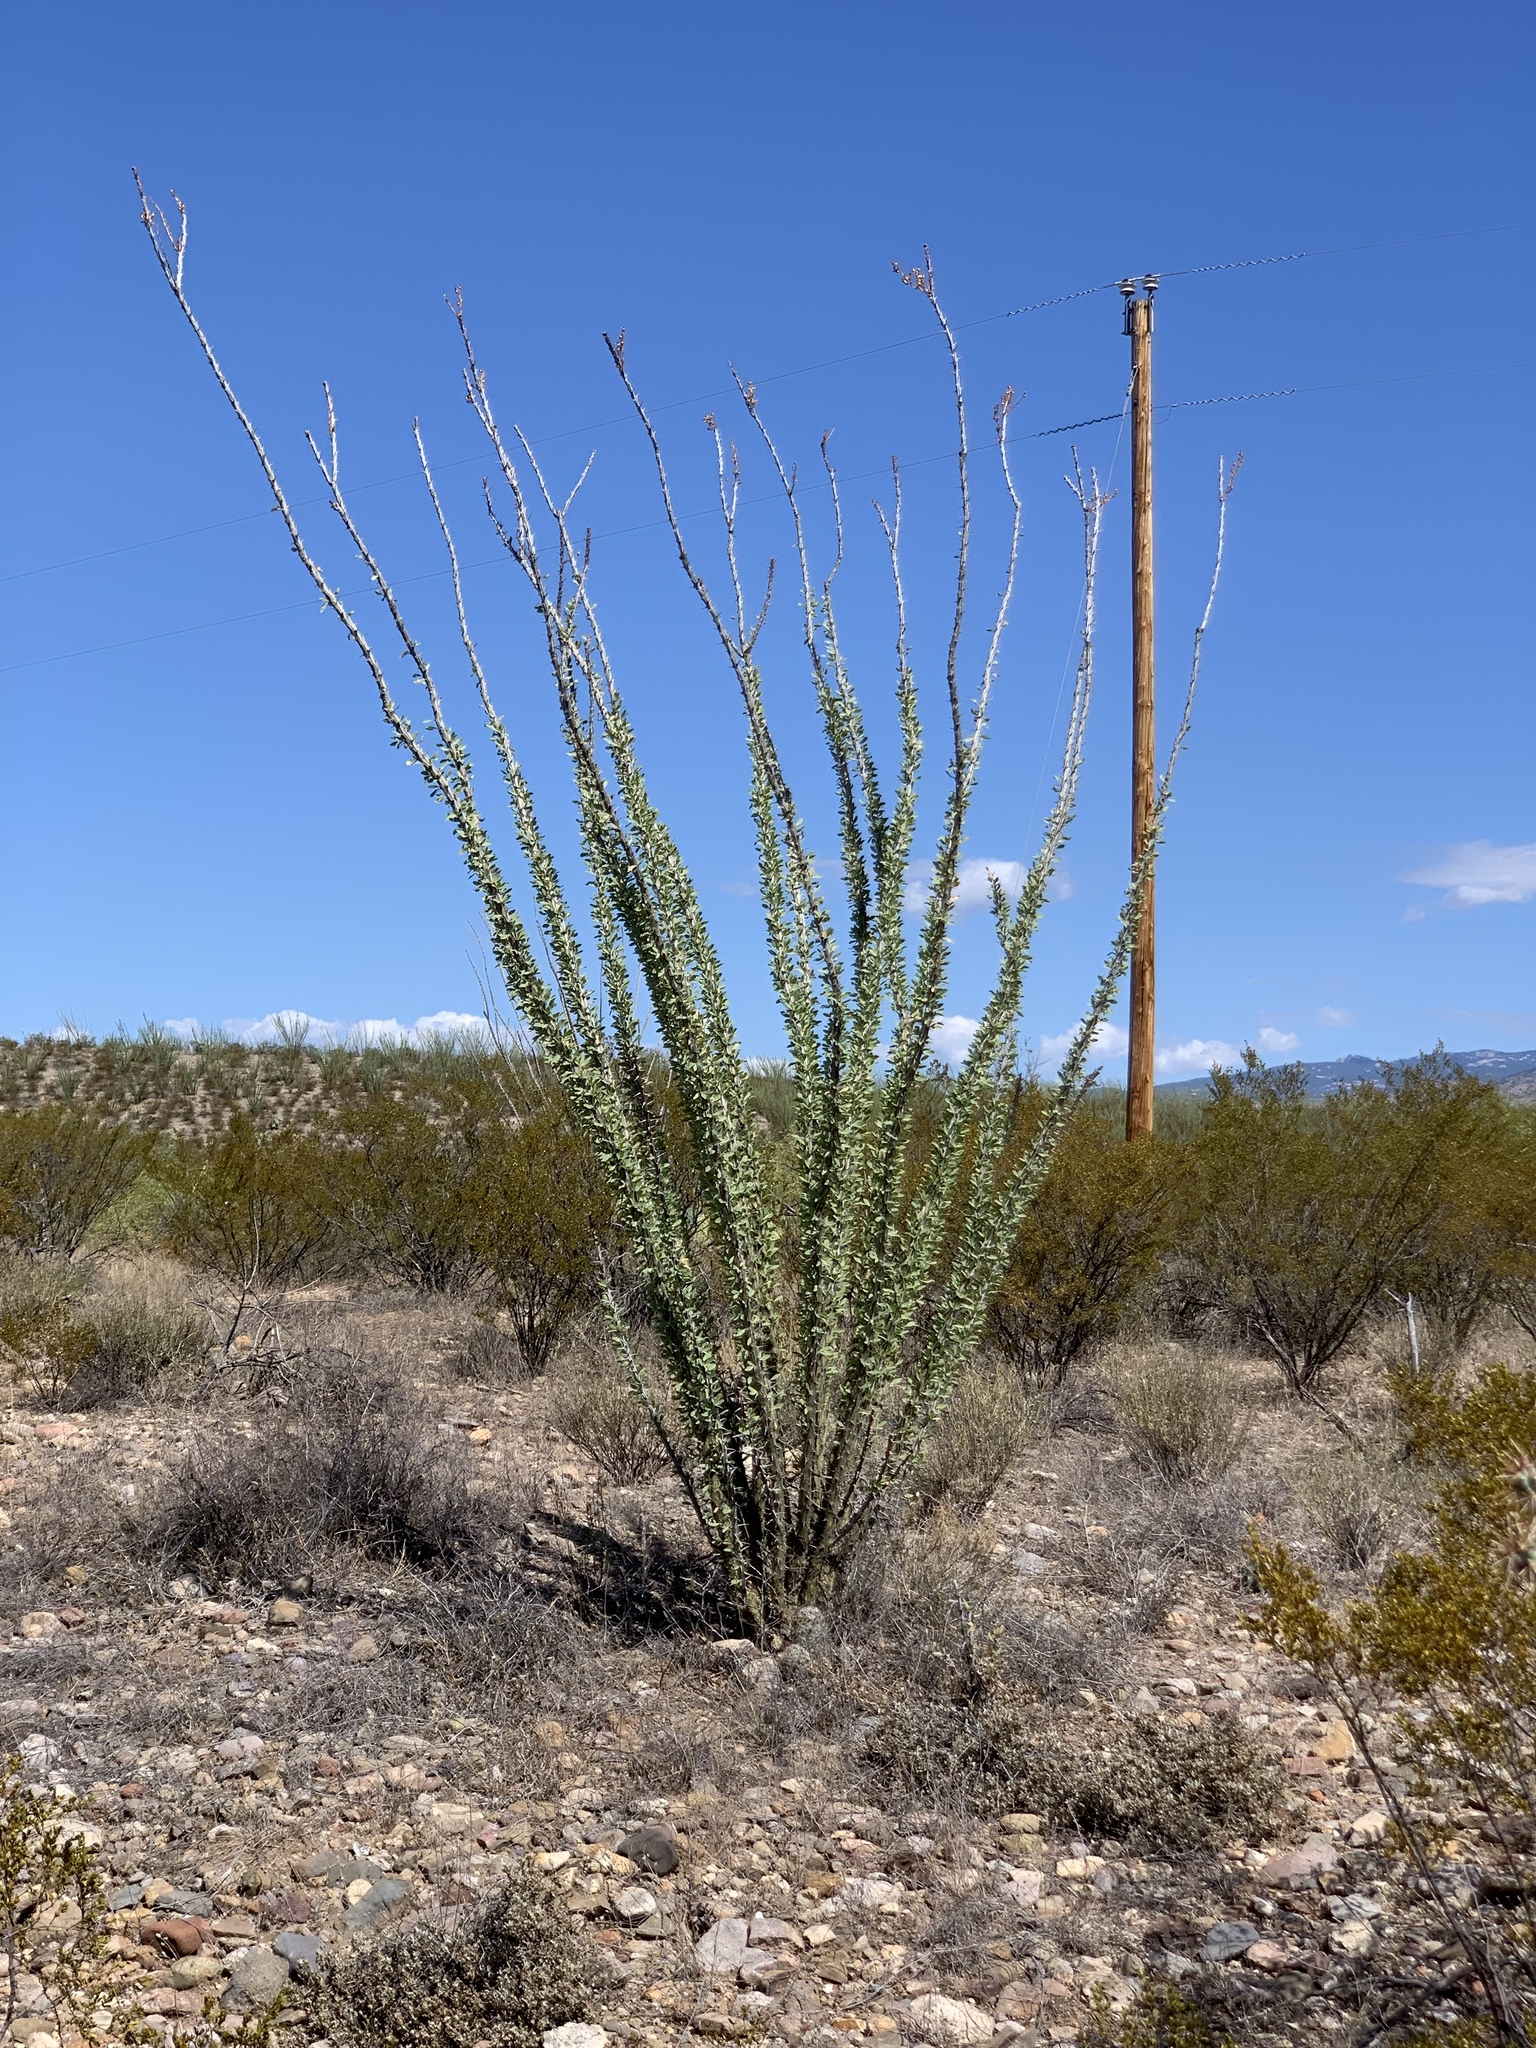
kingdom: Plantae
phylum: Tracheophyta
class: Magnoliopsida
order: Ericales
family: Fouquieriaceae
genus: Fouquieria
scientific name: Fouquieria splendens
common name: Vine-cactus
